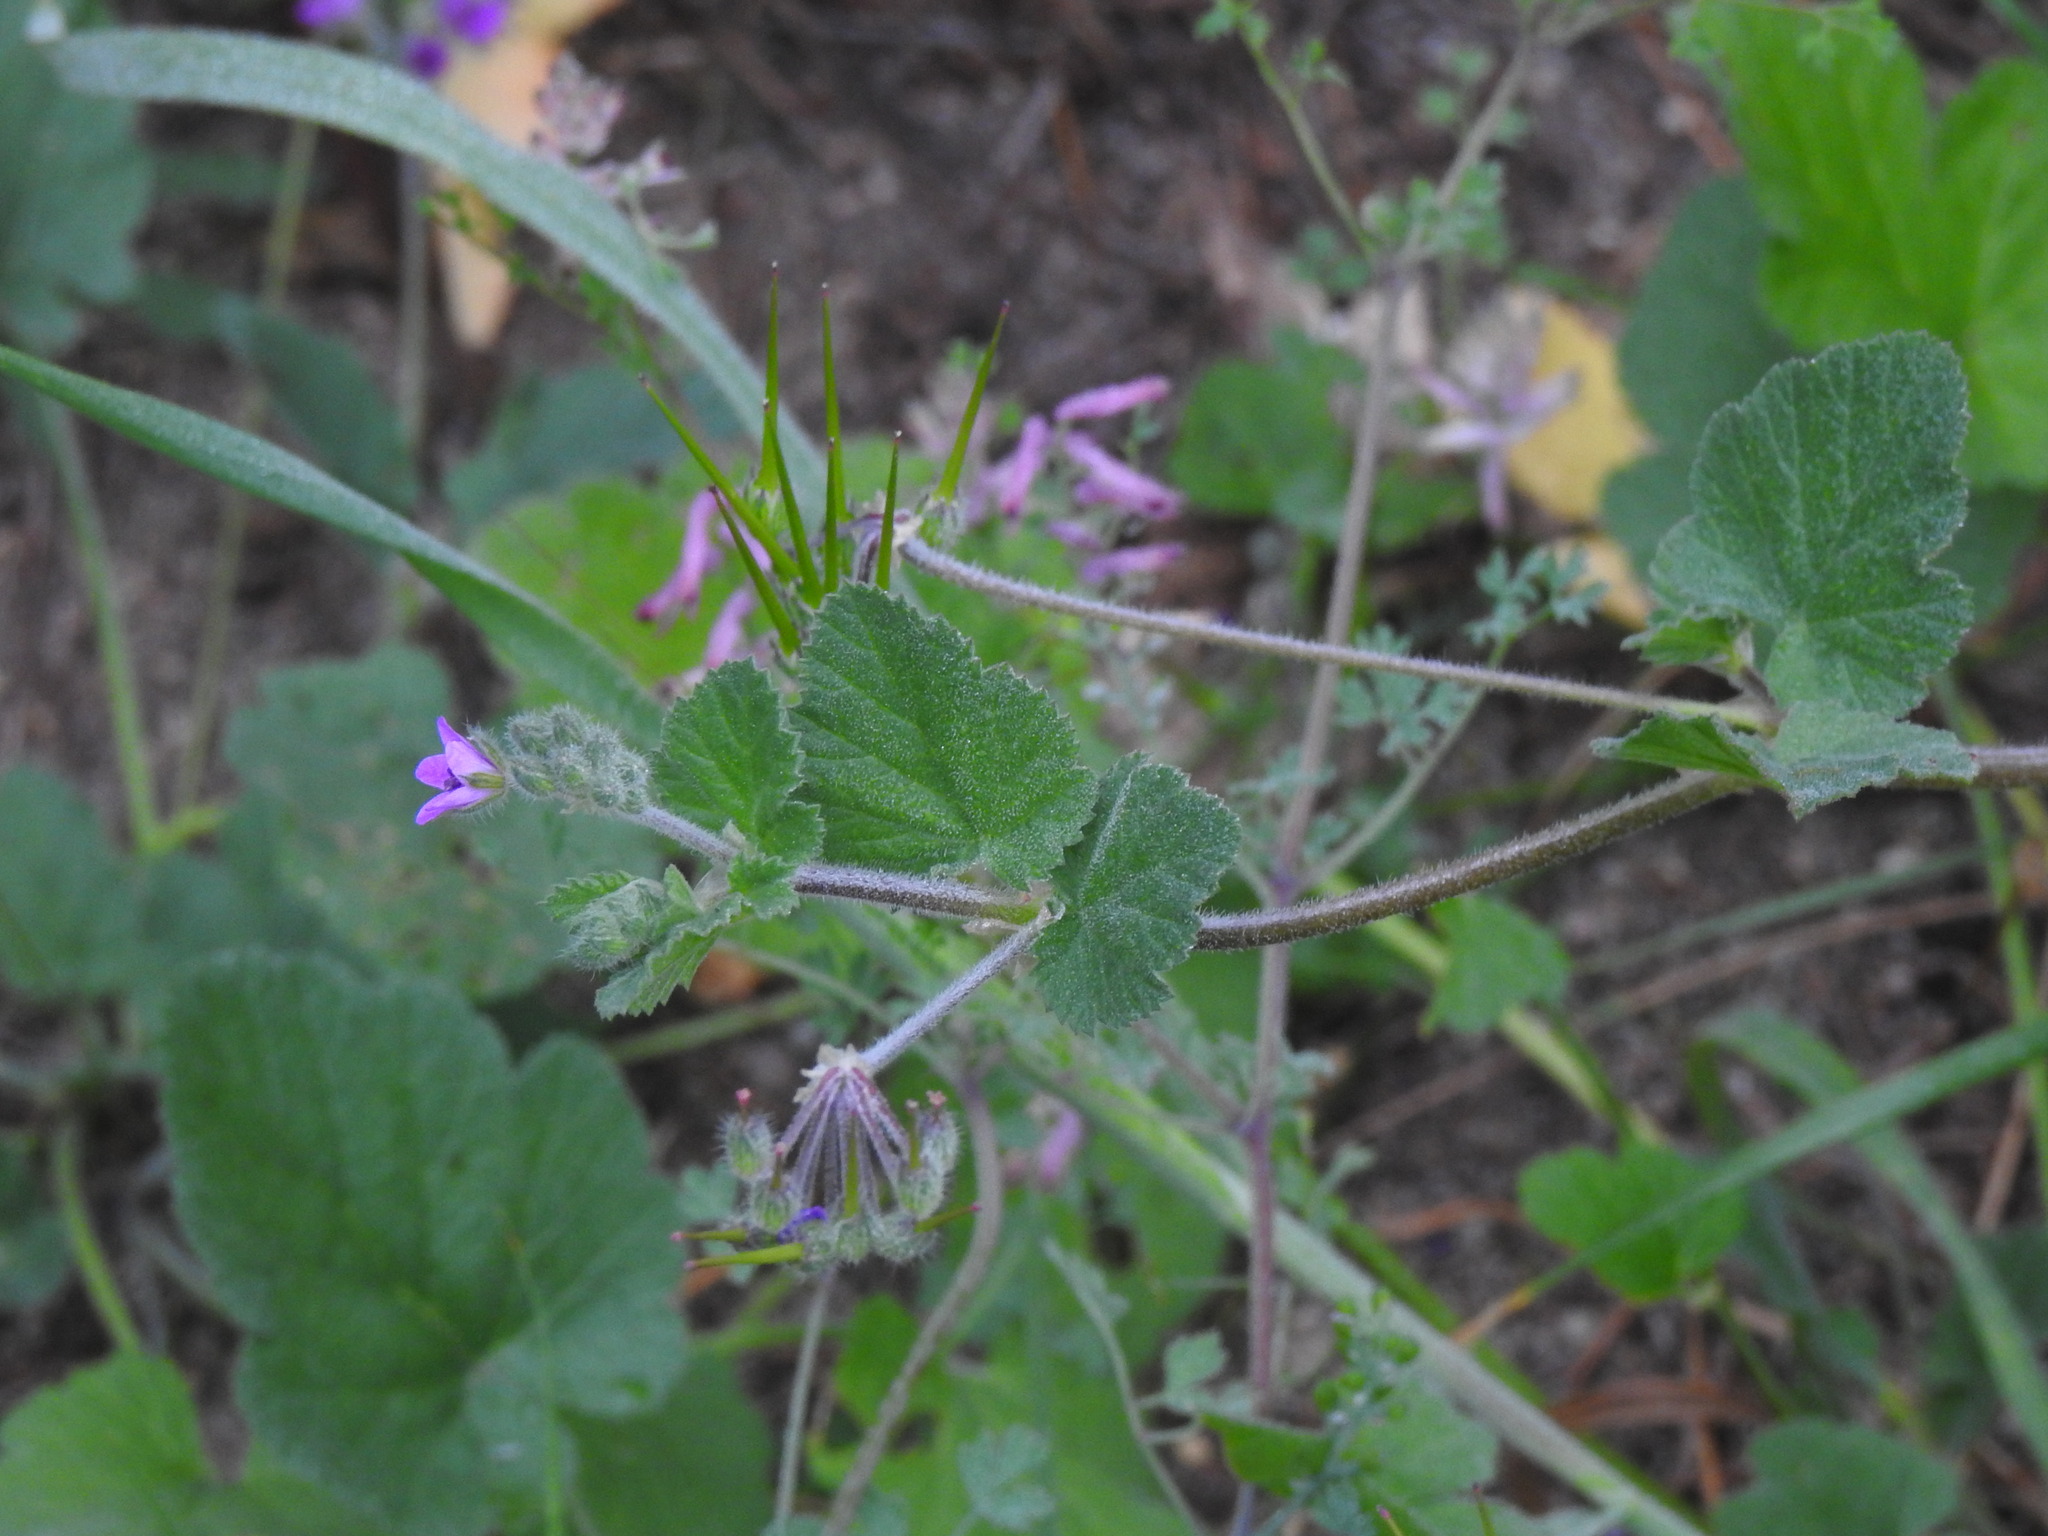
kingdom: Plantae
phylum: Tracheophyta
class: Magnoliopsida
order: Geraniales
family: Geraniaceae
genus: Erodium
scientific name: Erodium malacoides
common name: Soft stork's-bill
